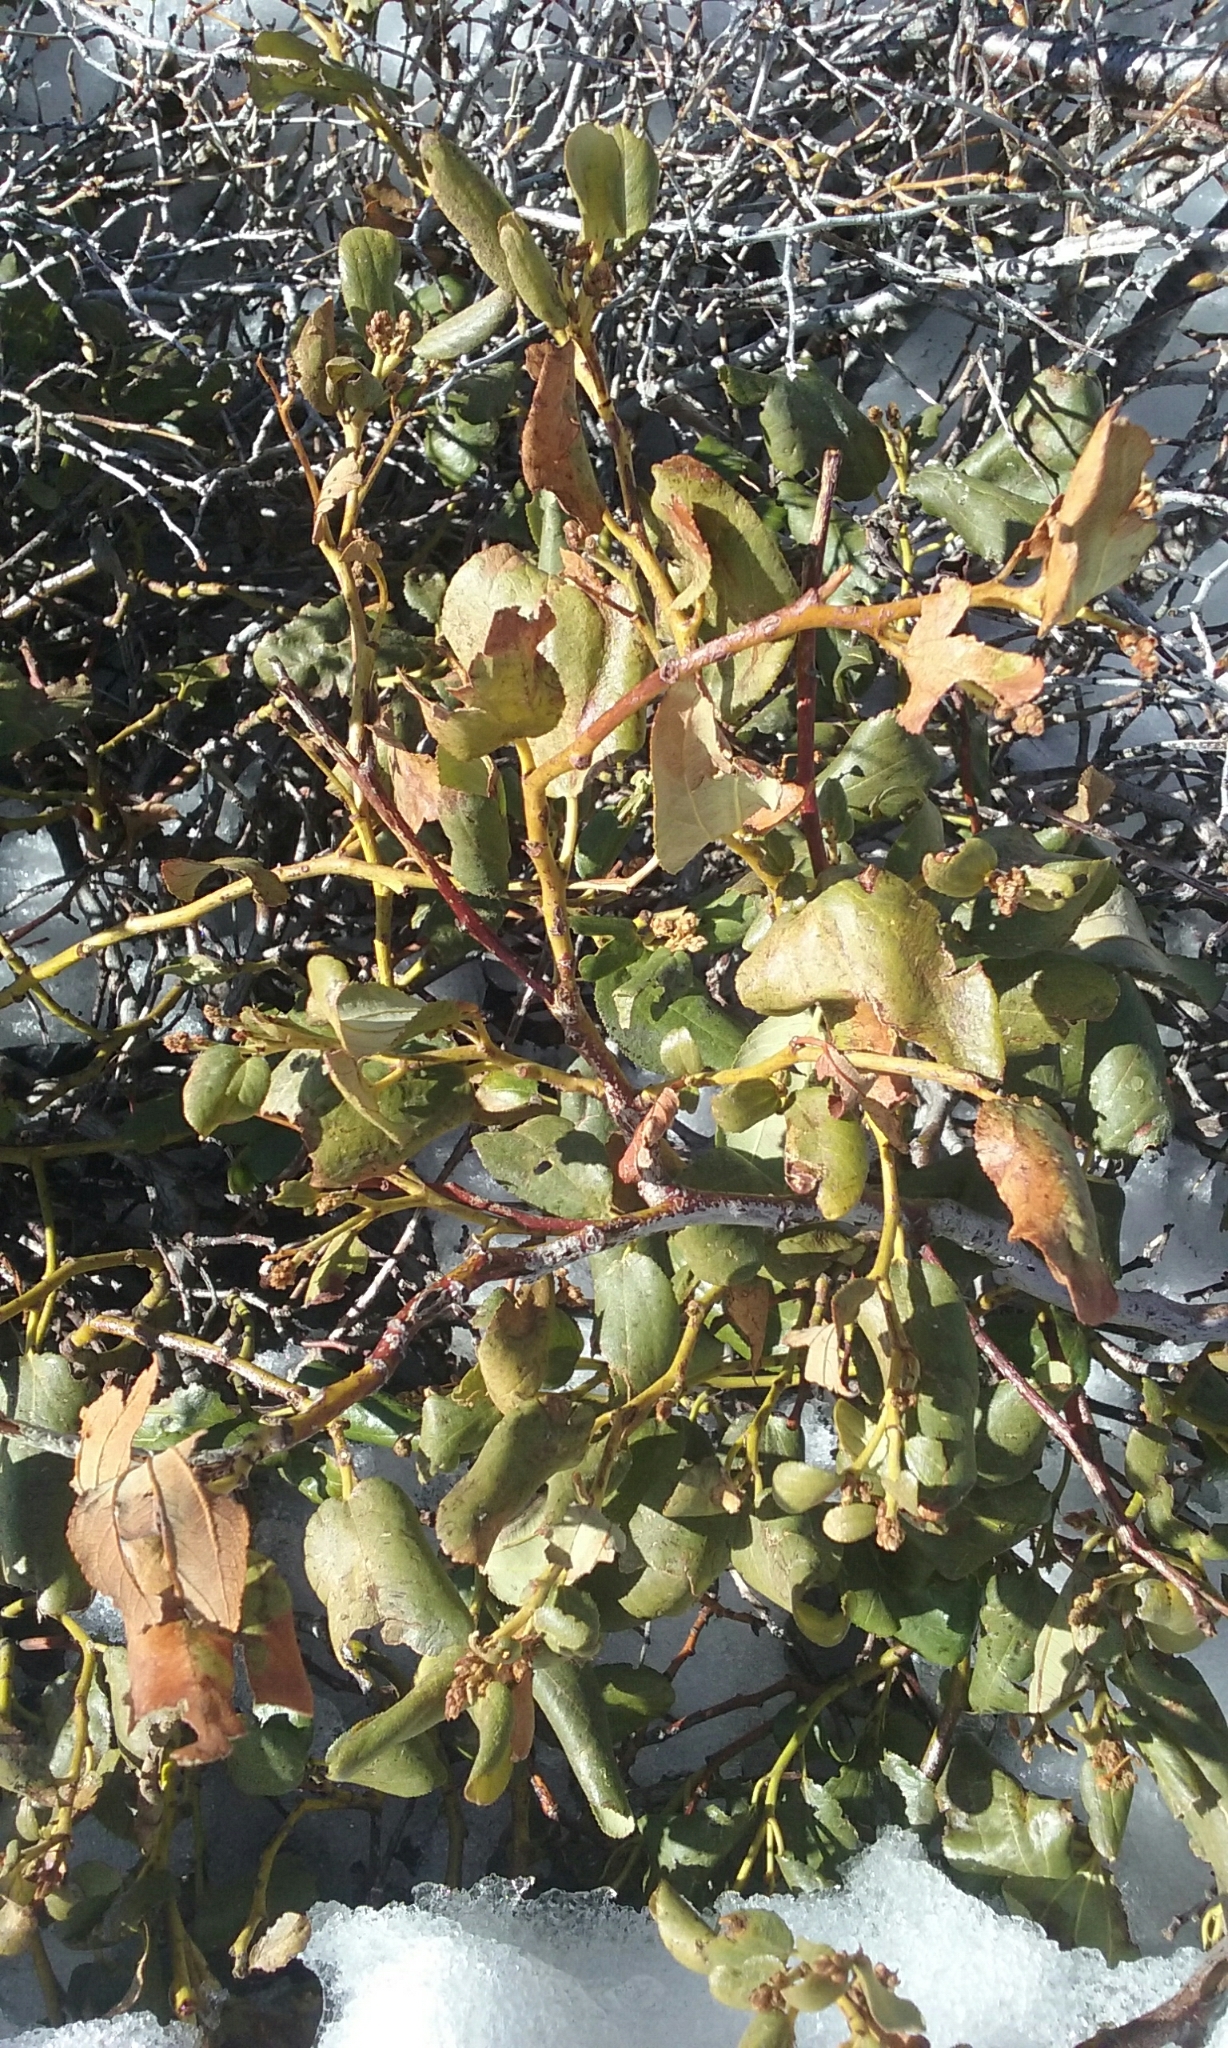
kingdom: Plantae
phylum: Tracheophyta
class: Magnoliopsida
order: Rosales
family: Rhamnaceae
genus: Ceanothus
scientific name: Ceanothus velutinus
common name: Snowbrush
